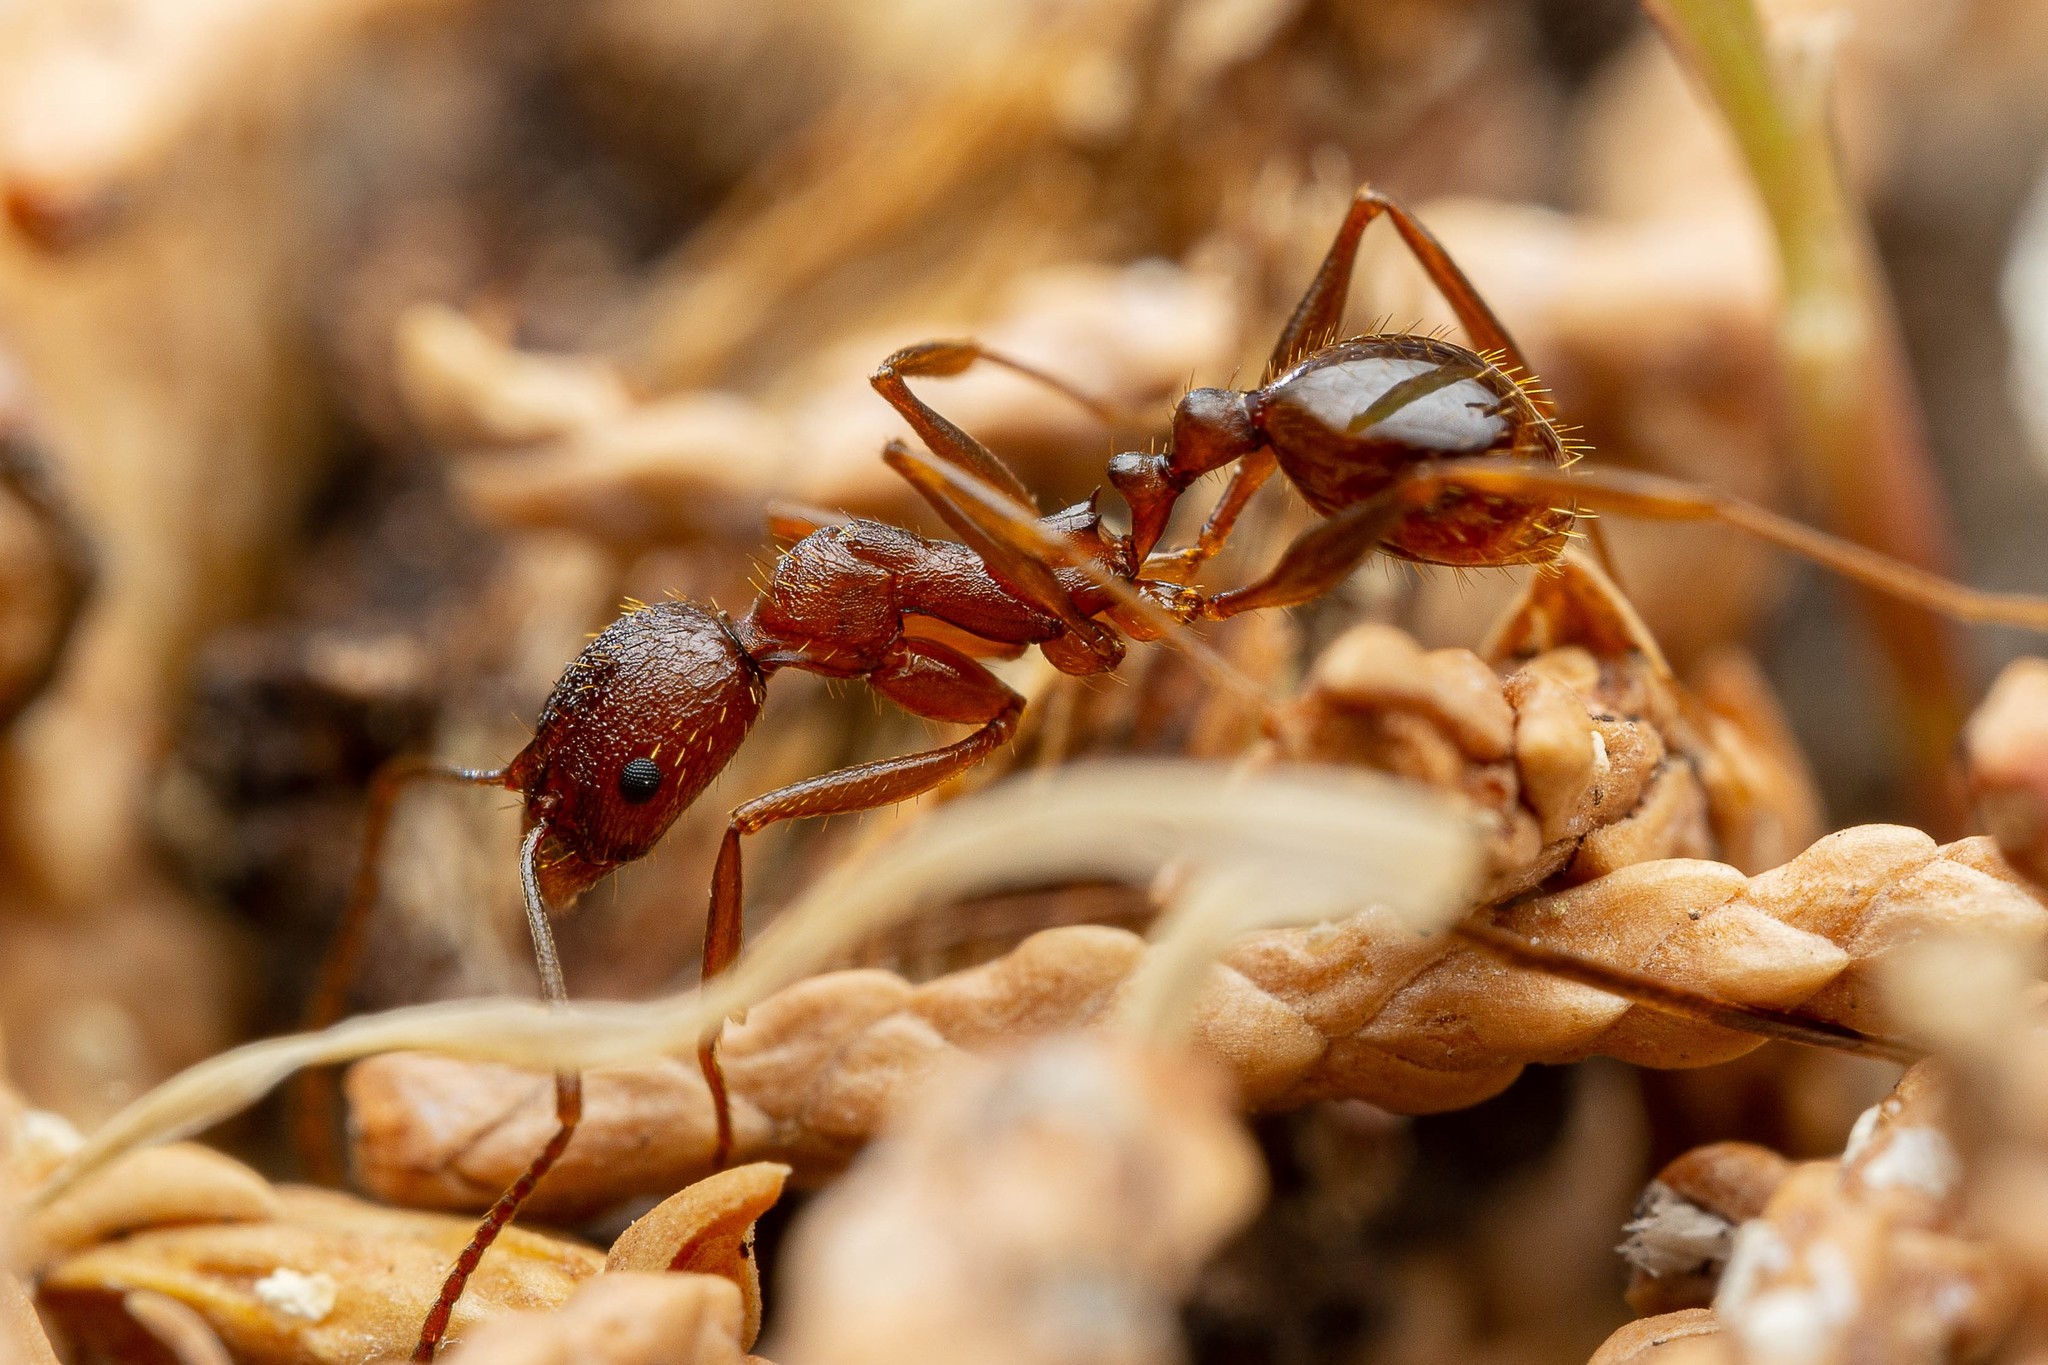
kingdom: Animalia
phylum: Arthropoda
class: Insecta
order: Hymenoptera
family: Formicidae
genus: Aphaenogaster
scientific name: Aphaenogaster texana
